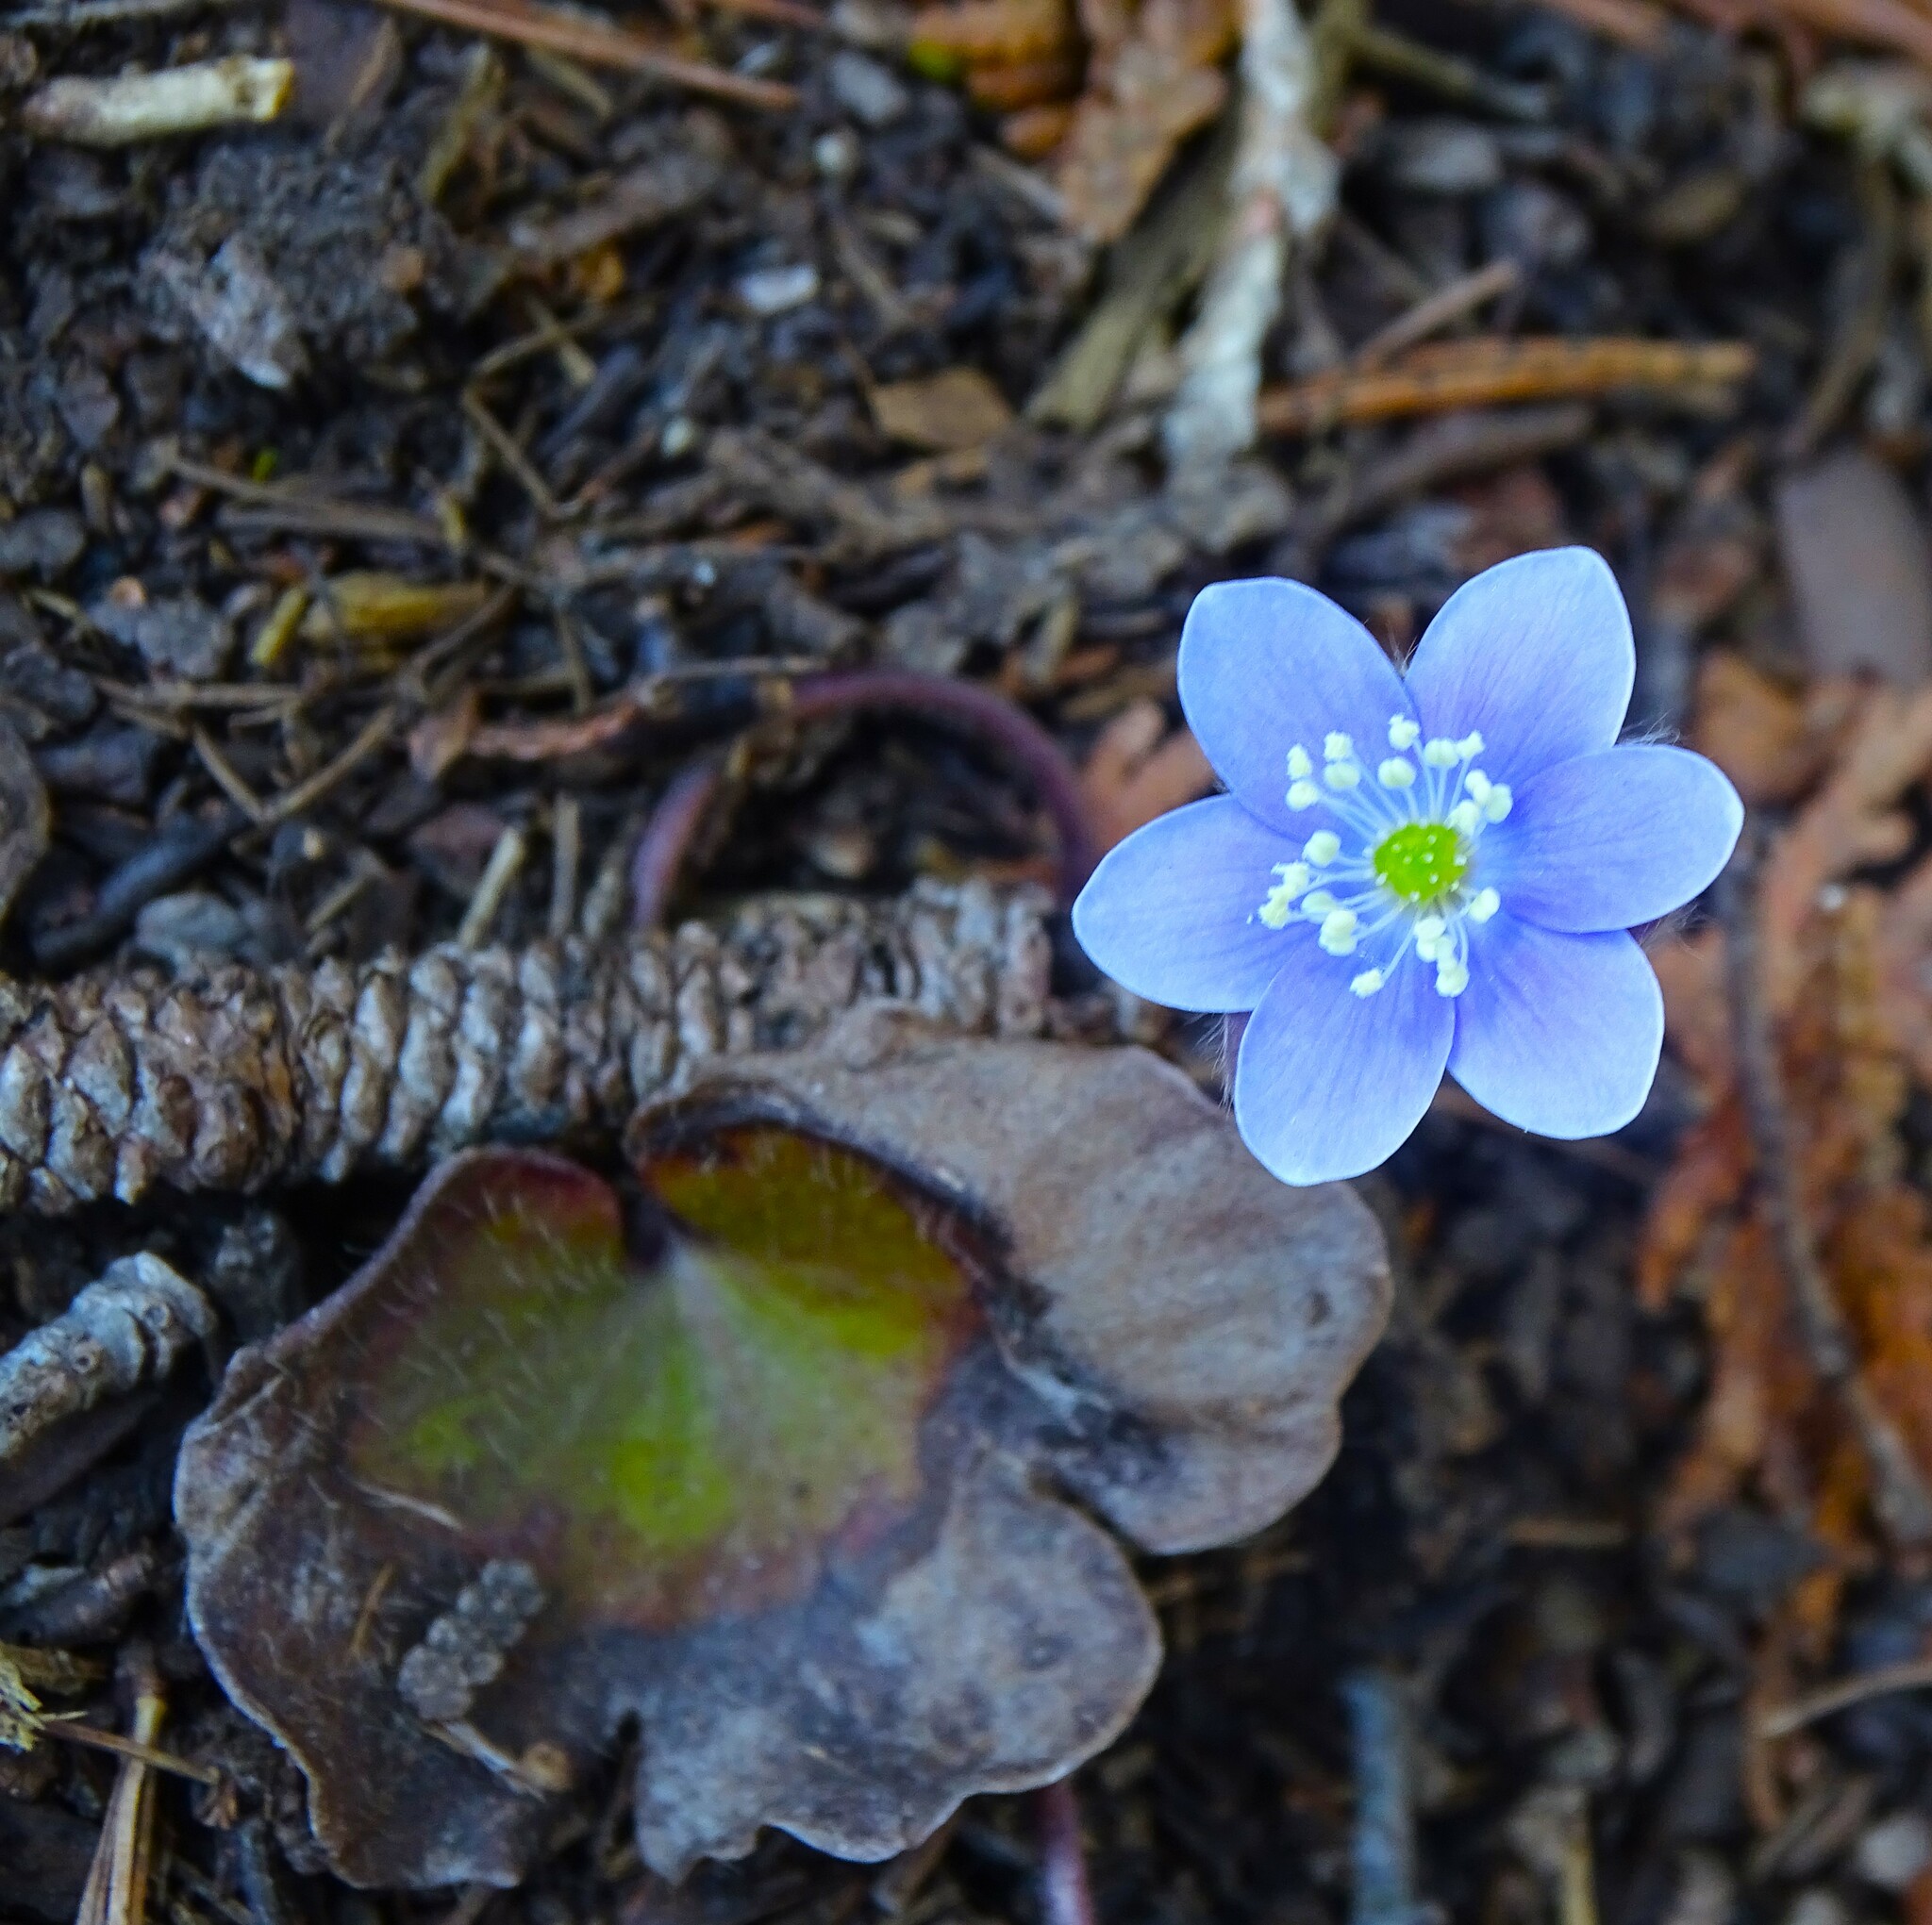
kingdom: Plantae
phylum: Tracheophyta
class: Magnoliopsida
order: Ranunculales
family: Ranunculaceae
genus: Hepatica
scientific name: Hepatica americana
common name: American hepatica
